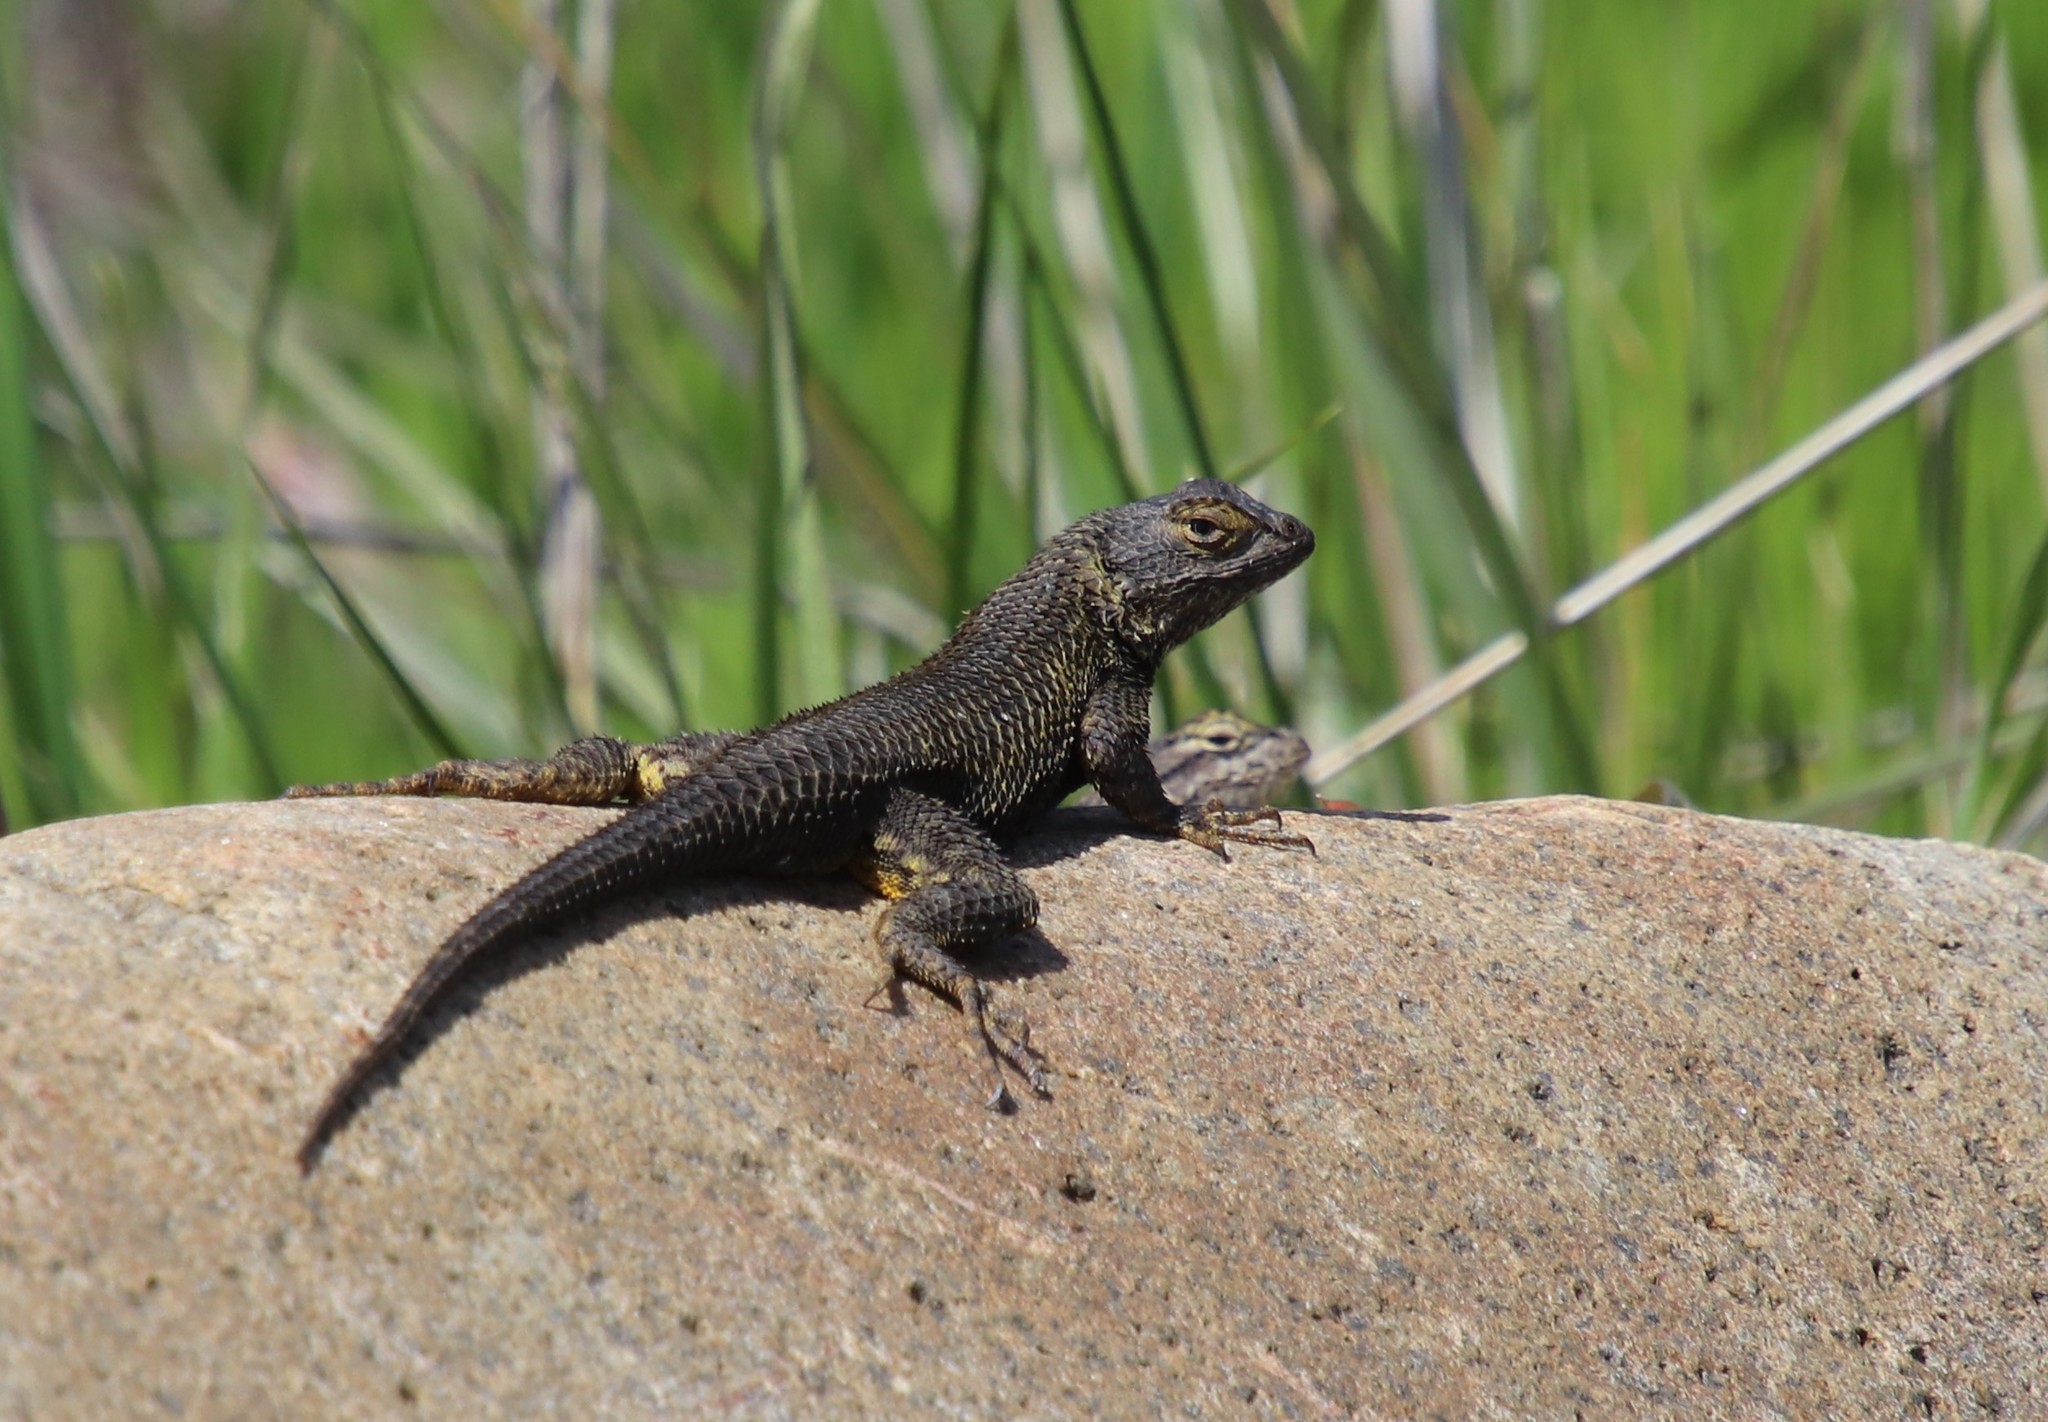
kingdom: Animalia
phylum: Chordata
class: Squamata
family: Phrynosomatidae
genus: Sceloporus
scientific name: Sceloporus occidentalis
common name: Western fence lizard
